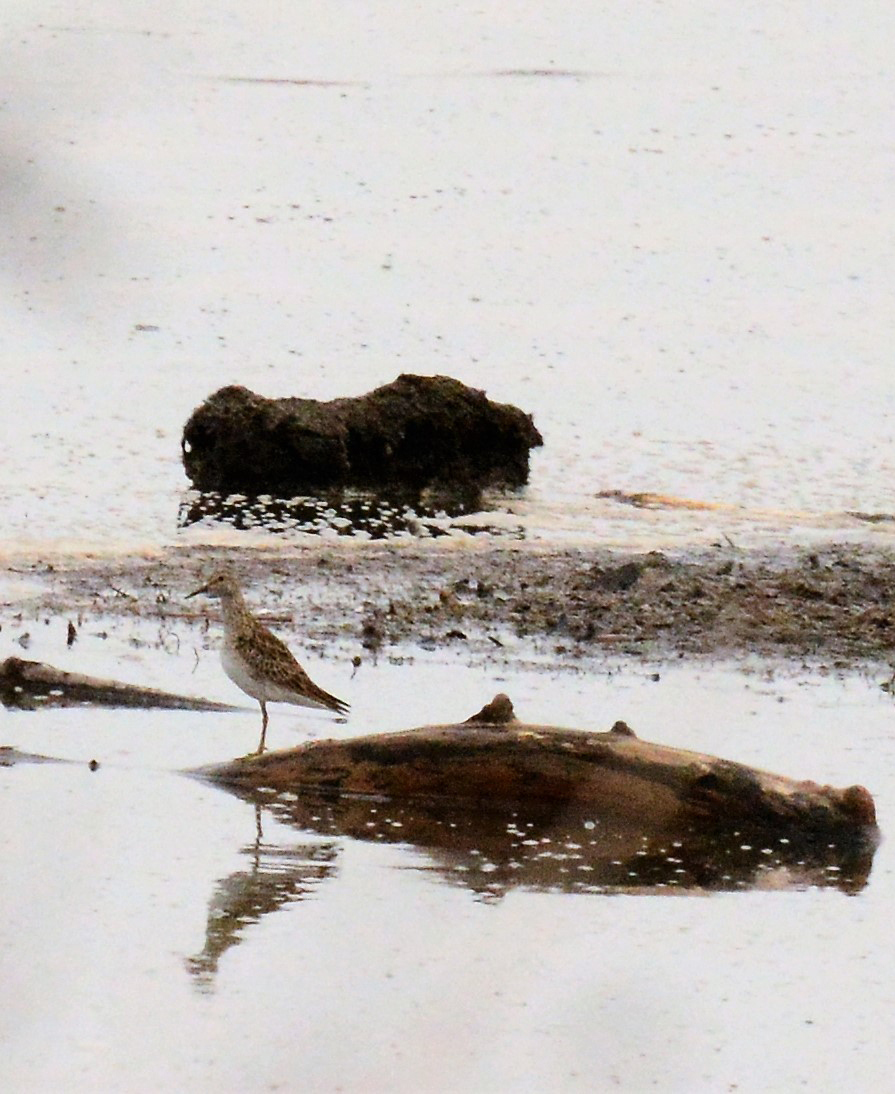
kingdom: Animalia
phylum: Chordata
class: Aves
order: Charadriiformes
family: Scolopacidae
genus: Calidris
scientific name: Calidris melanotos
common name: Pectoral sandpiper
